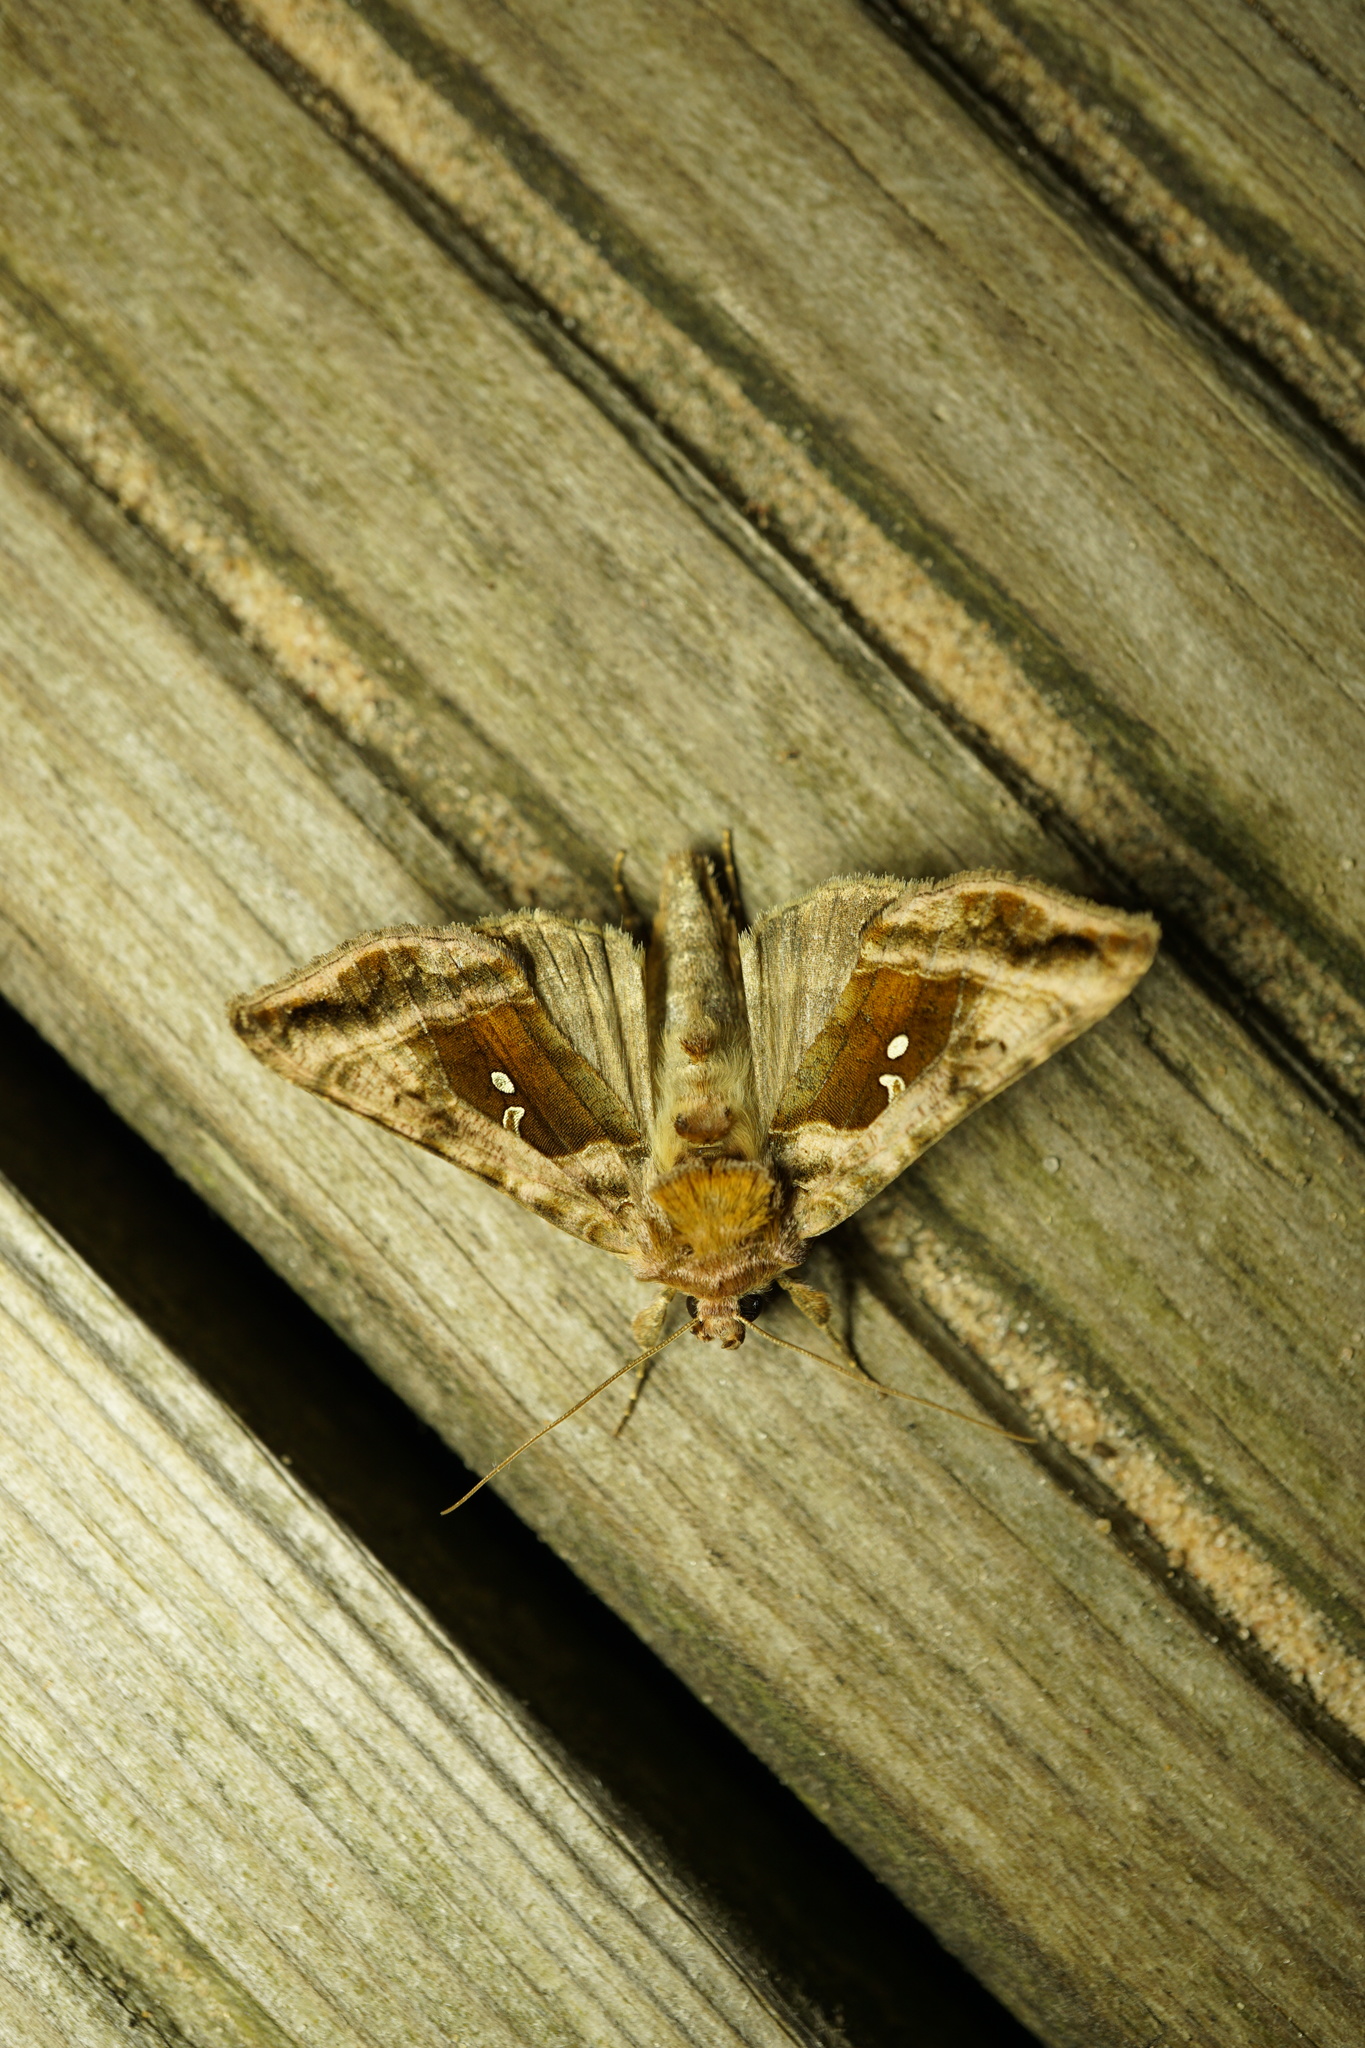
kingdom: Animalia
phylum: Arthropoda
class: Insecta
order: Lepidoptera
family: Noctuidae
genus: Autographa
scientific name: Autographa jota
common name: Plain golden y
